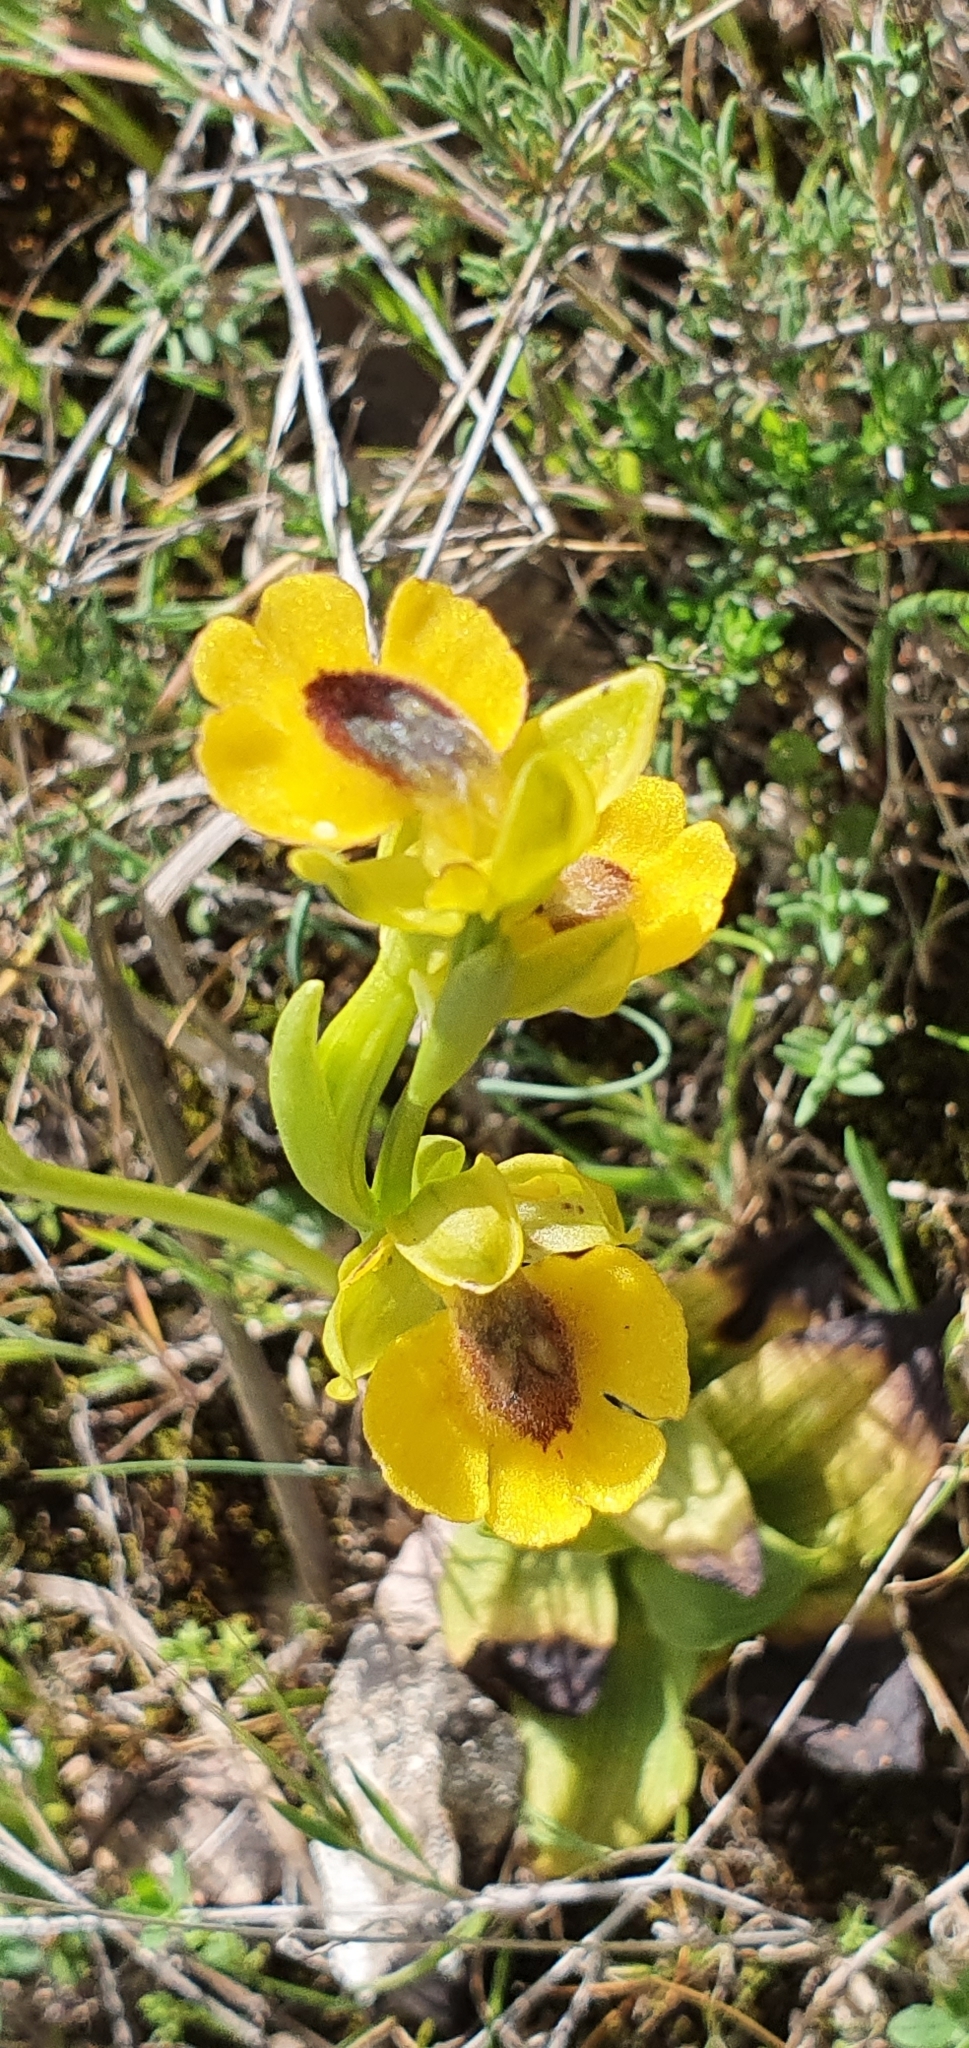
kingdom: Plantae
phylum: Tracheophyta
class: Liliopsida
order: Asparagales
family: Orchidaceae
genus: Ophrys
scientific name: Ophrys lutea
